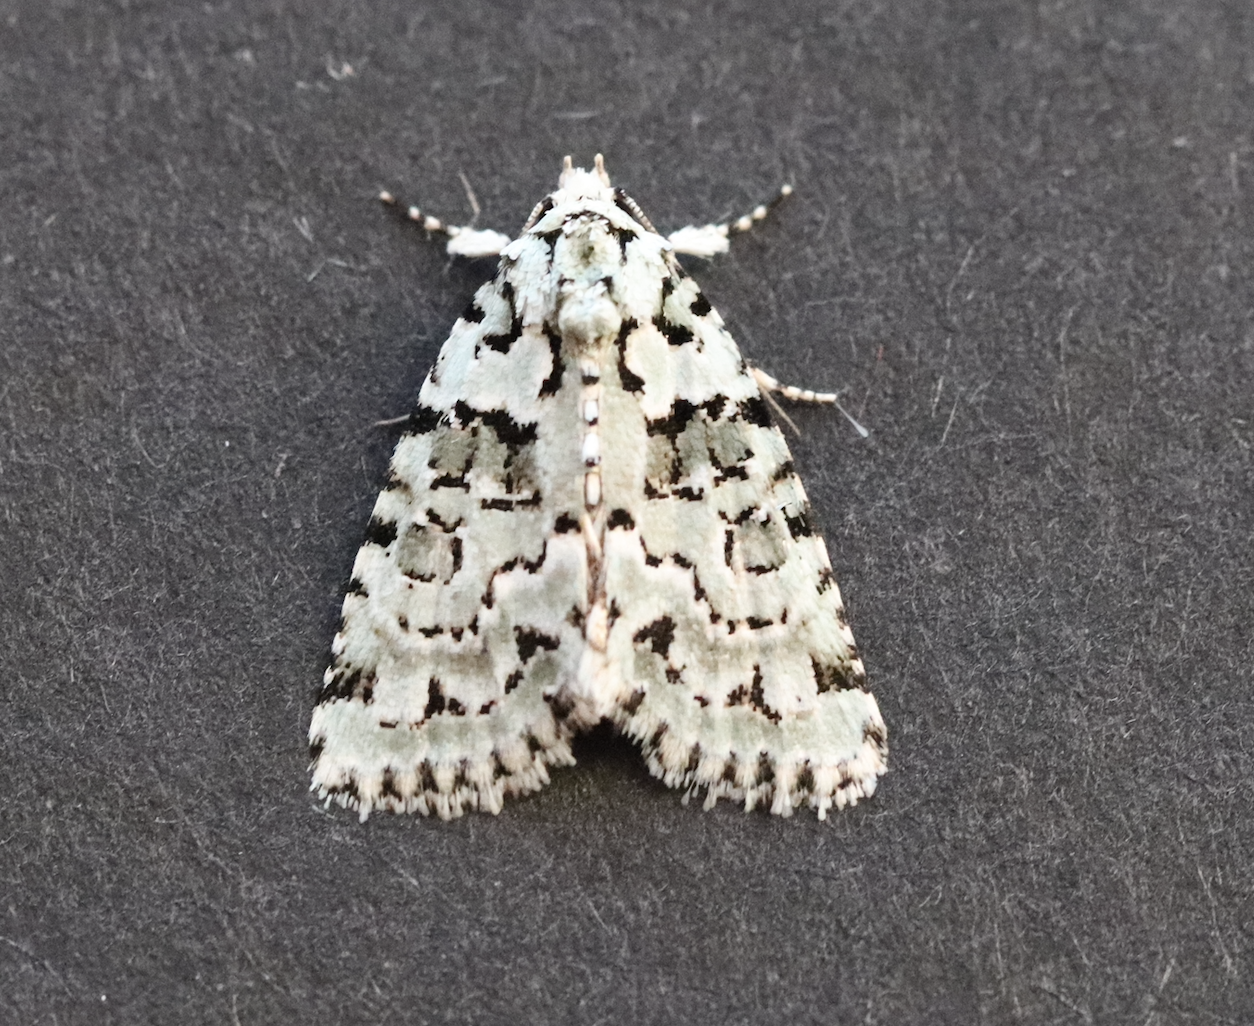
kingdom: Animalia
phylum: Arthropoda
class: Insecta
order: Lepidoptera
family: Noctuidae
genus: Nyctobrya
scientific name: Nyctobrya muralis
